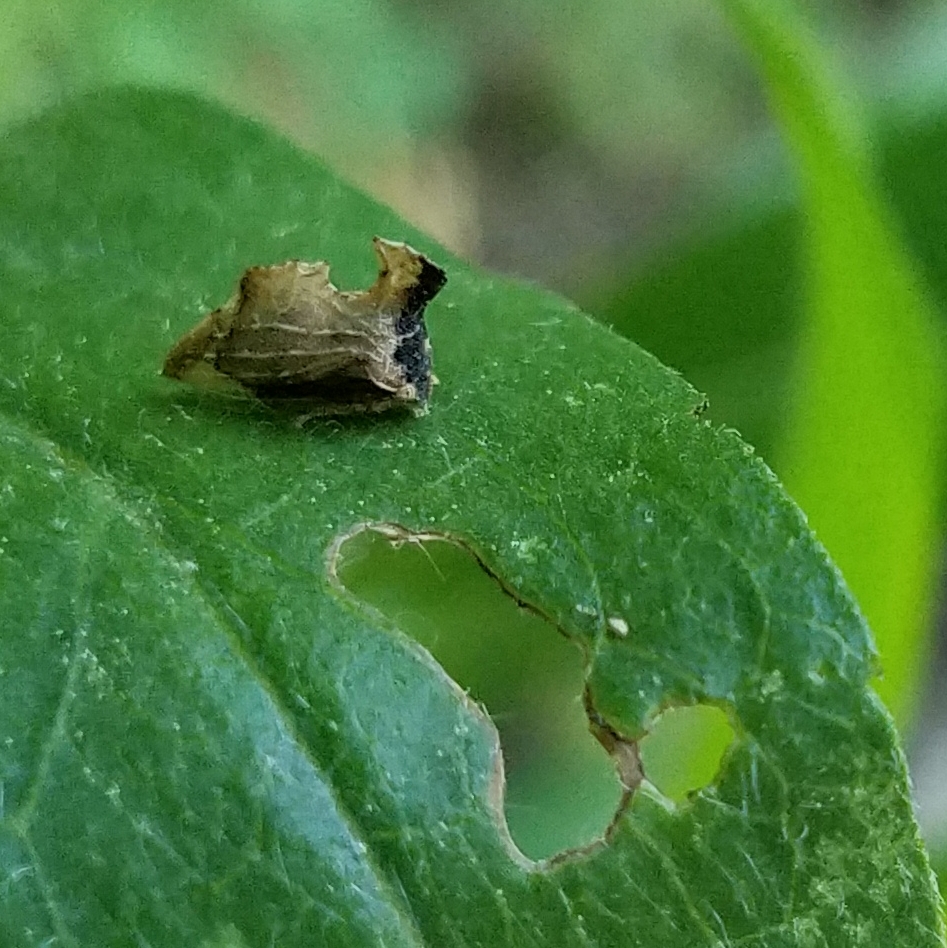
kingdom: Animalia
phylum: Arthropoda
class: Insecta
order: Hemiptera
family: Membracidae
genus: Entylia
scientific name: Entylia carinata
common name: Keeled treehopper
